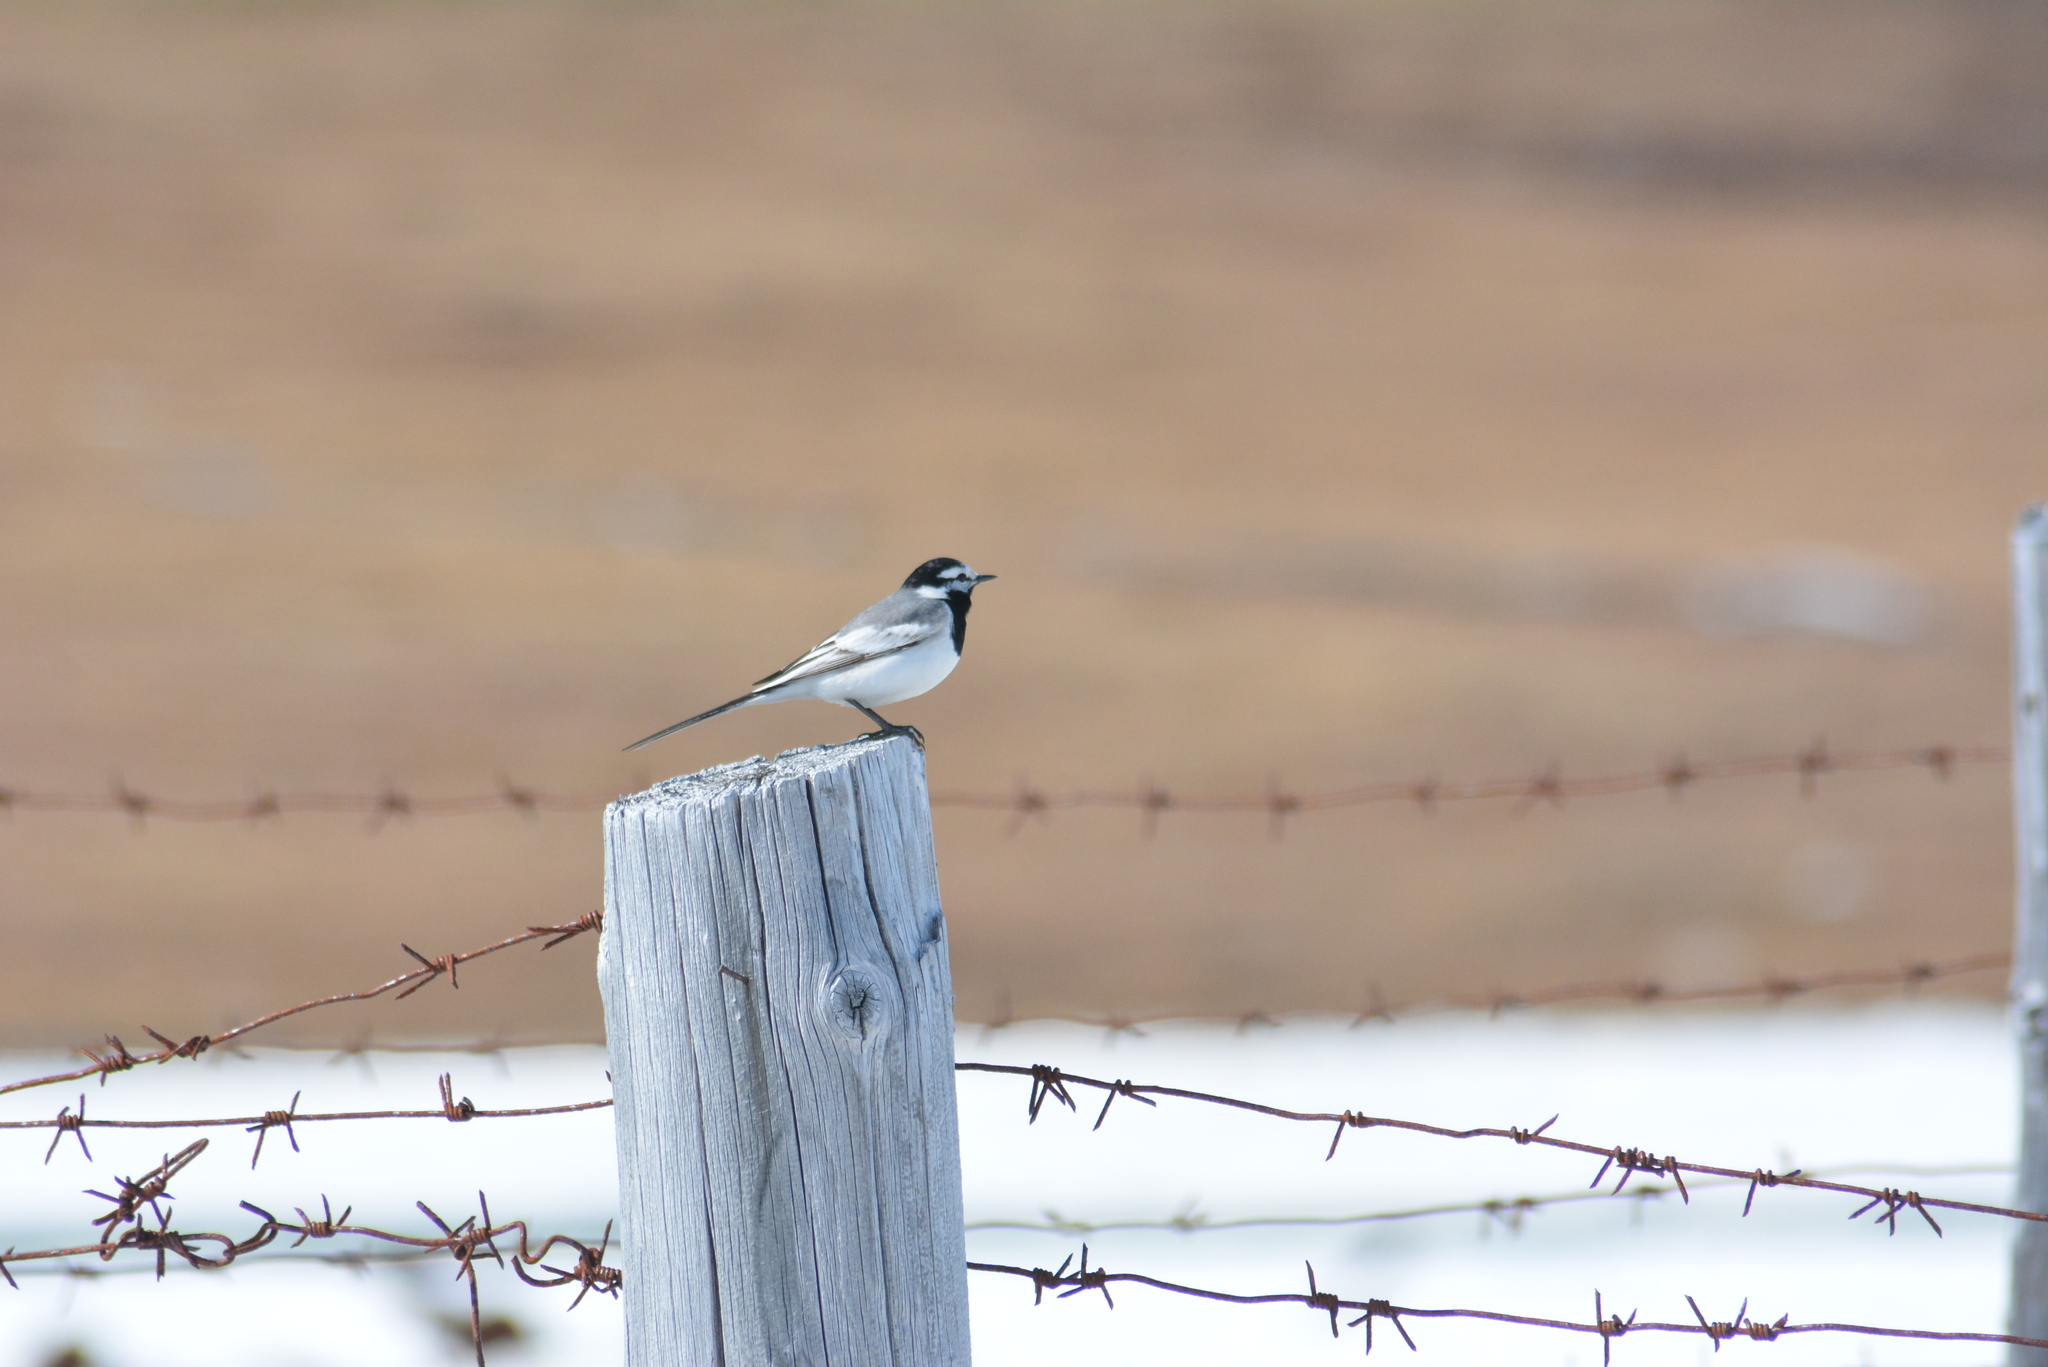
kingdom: Animalia
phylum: Chordata
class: Aves
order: Passeriformes
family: Motacillidae
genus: Motacilla
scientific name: Motacilla alba
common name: White wagtail
